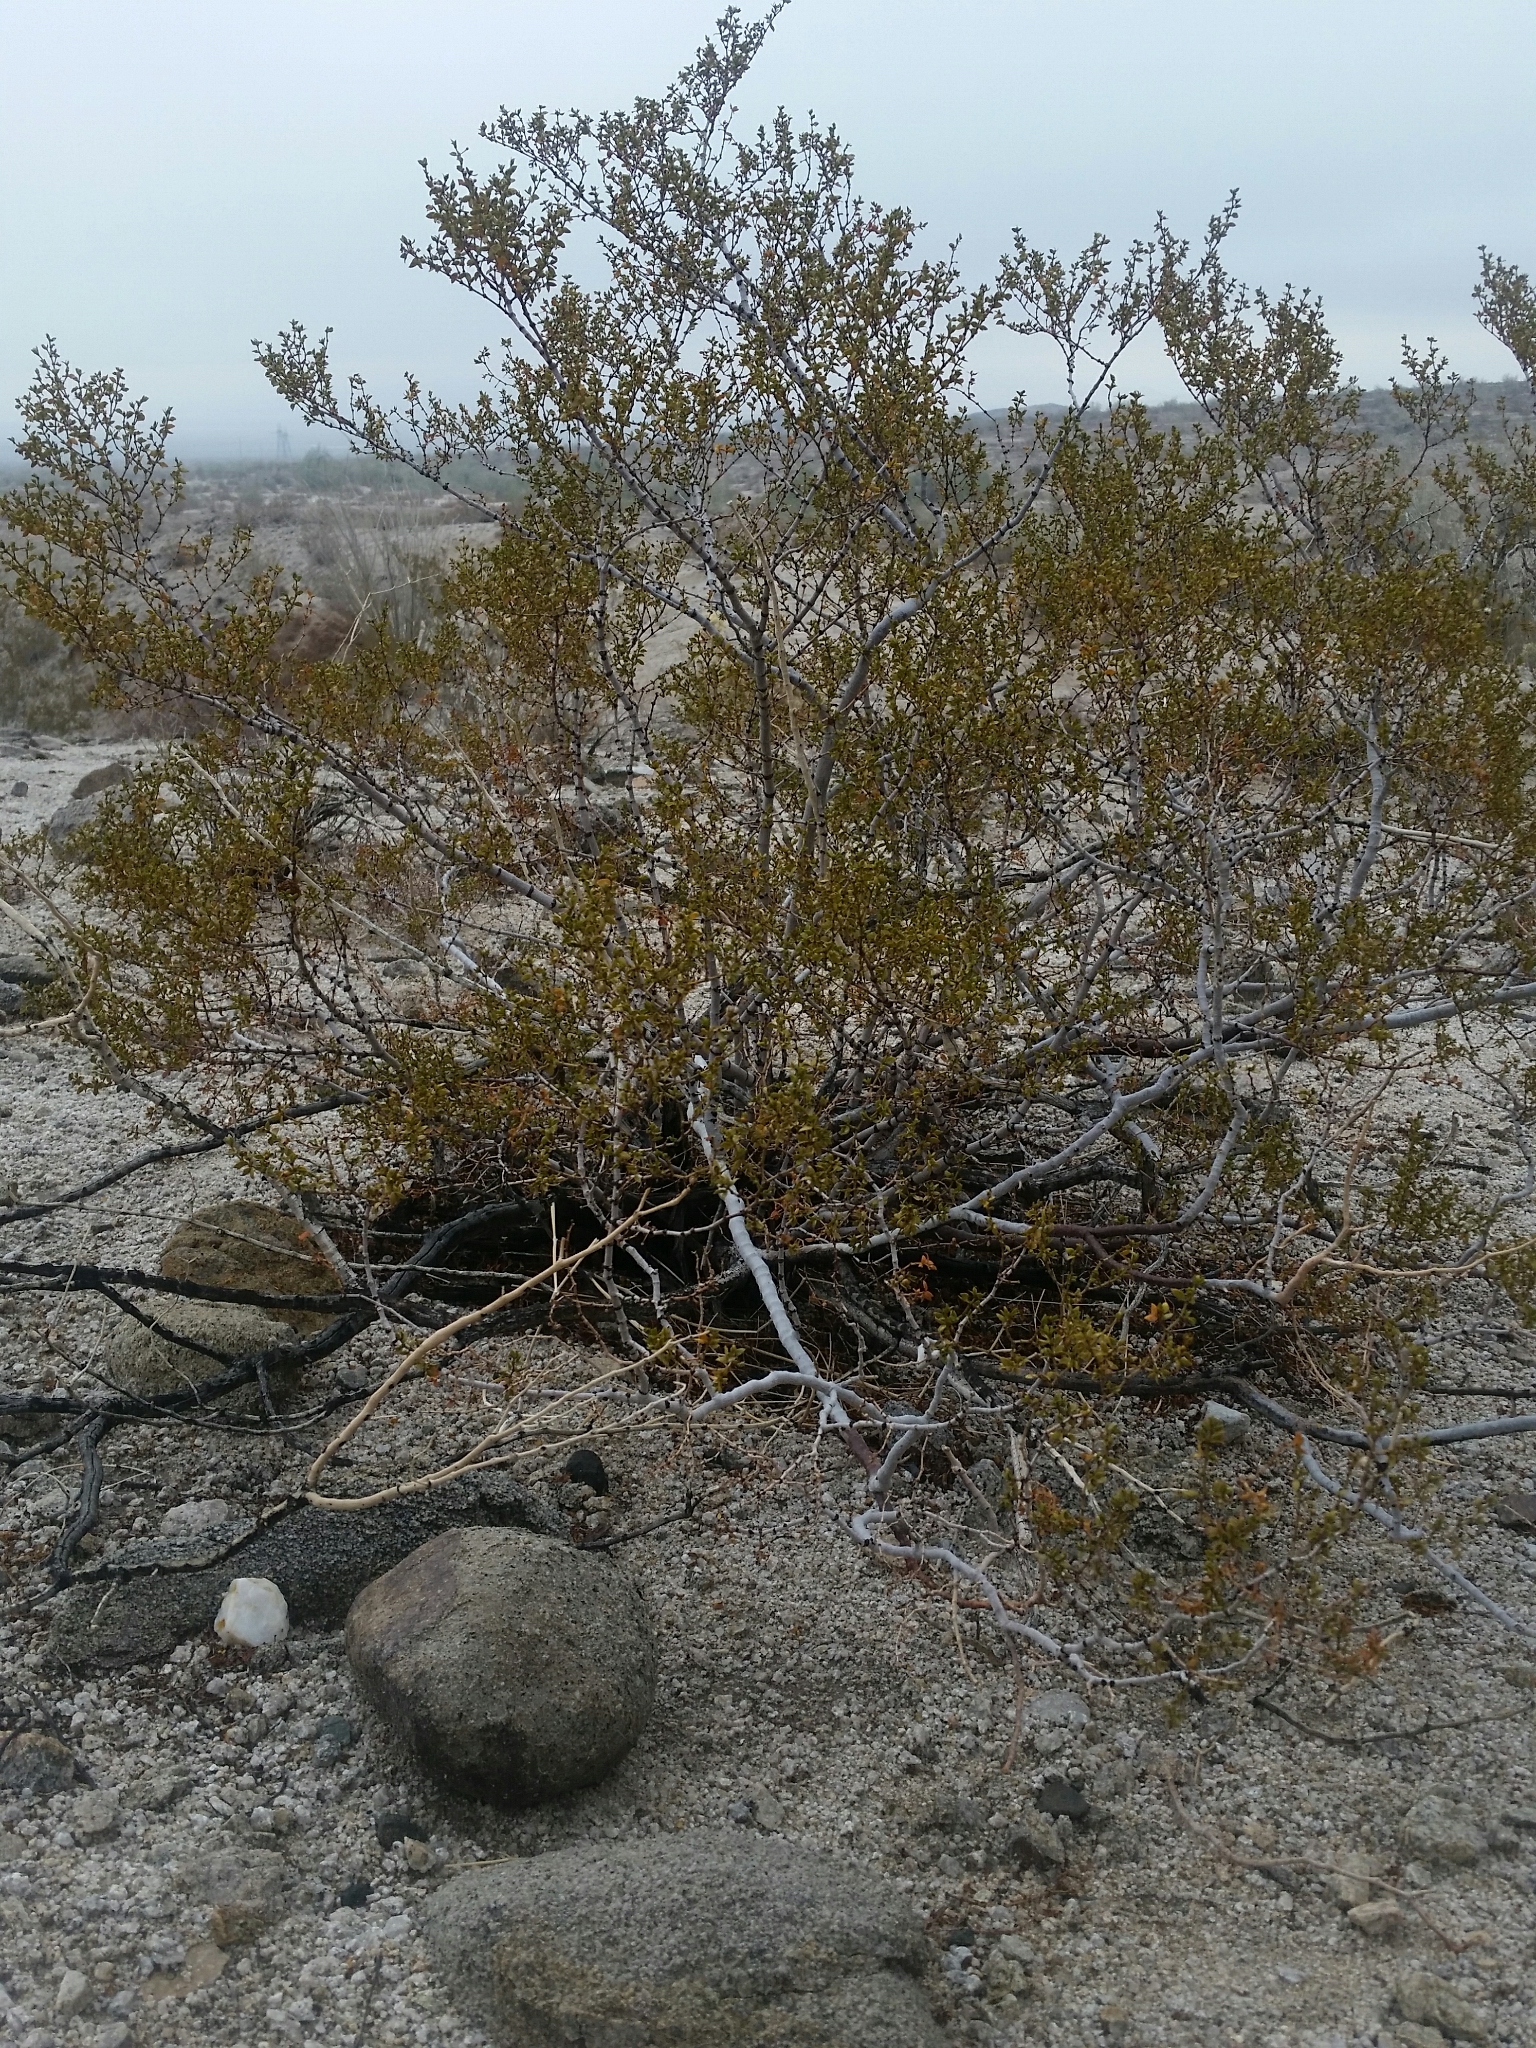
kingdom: Plantae
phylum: Tracheophyta
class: Magnoliopsida
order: Zygophyllales
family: Zygophyllaceae
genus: Larrea
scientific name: Larrea tridentata
